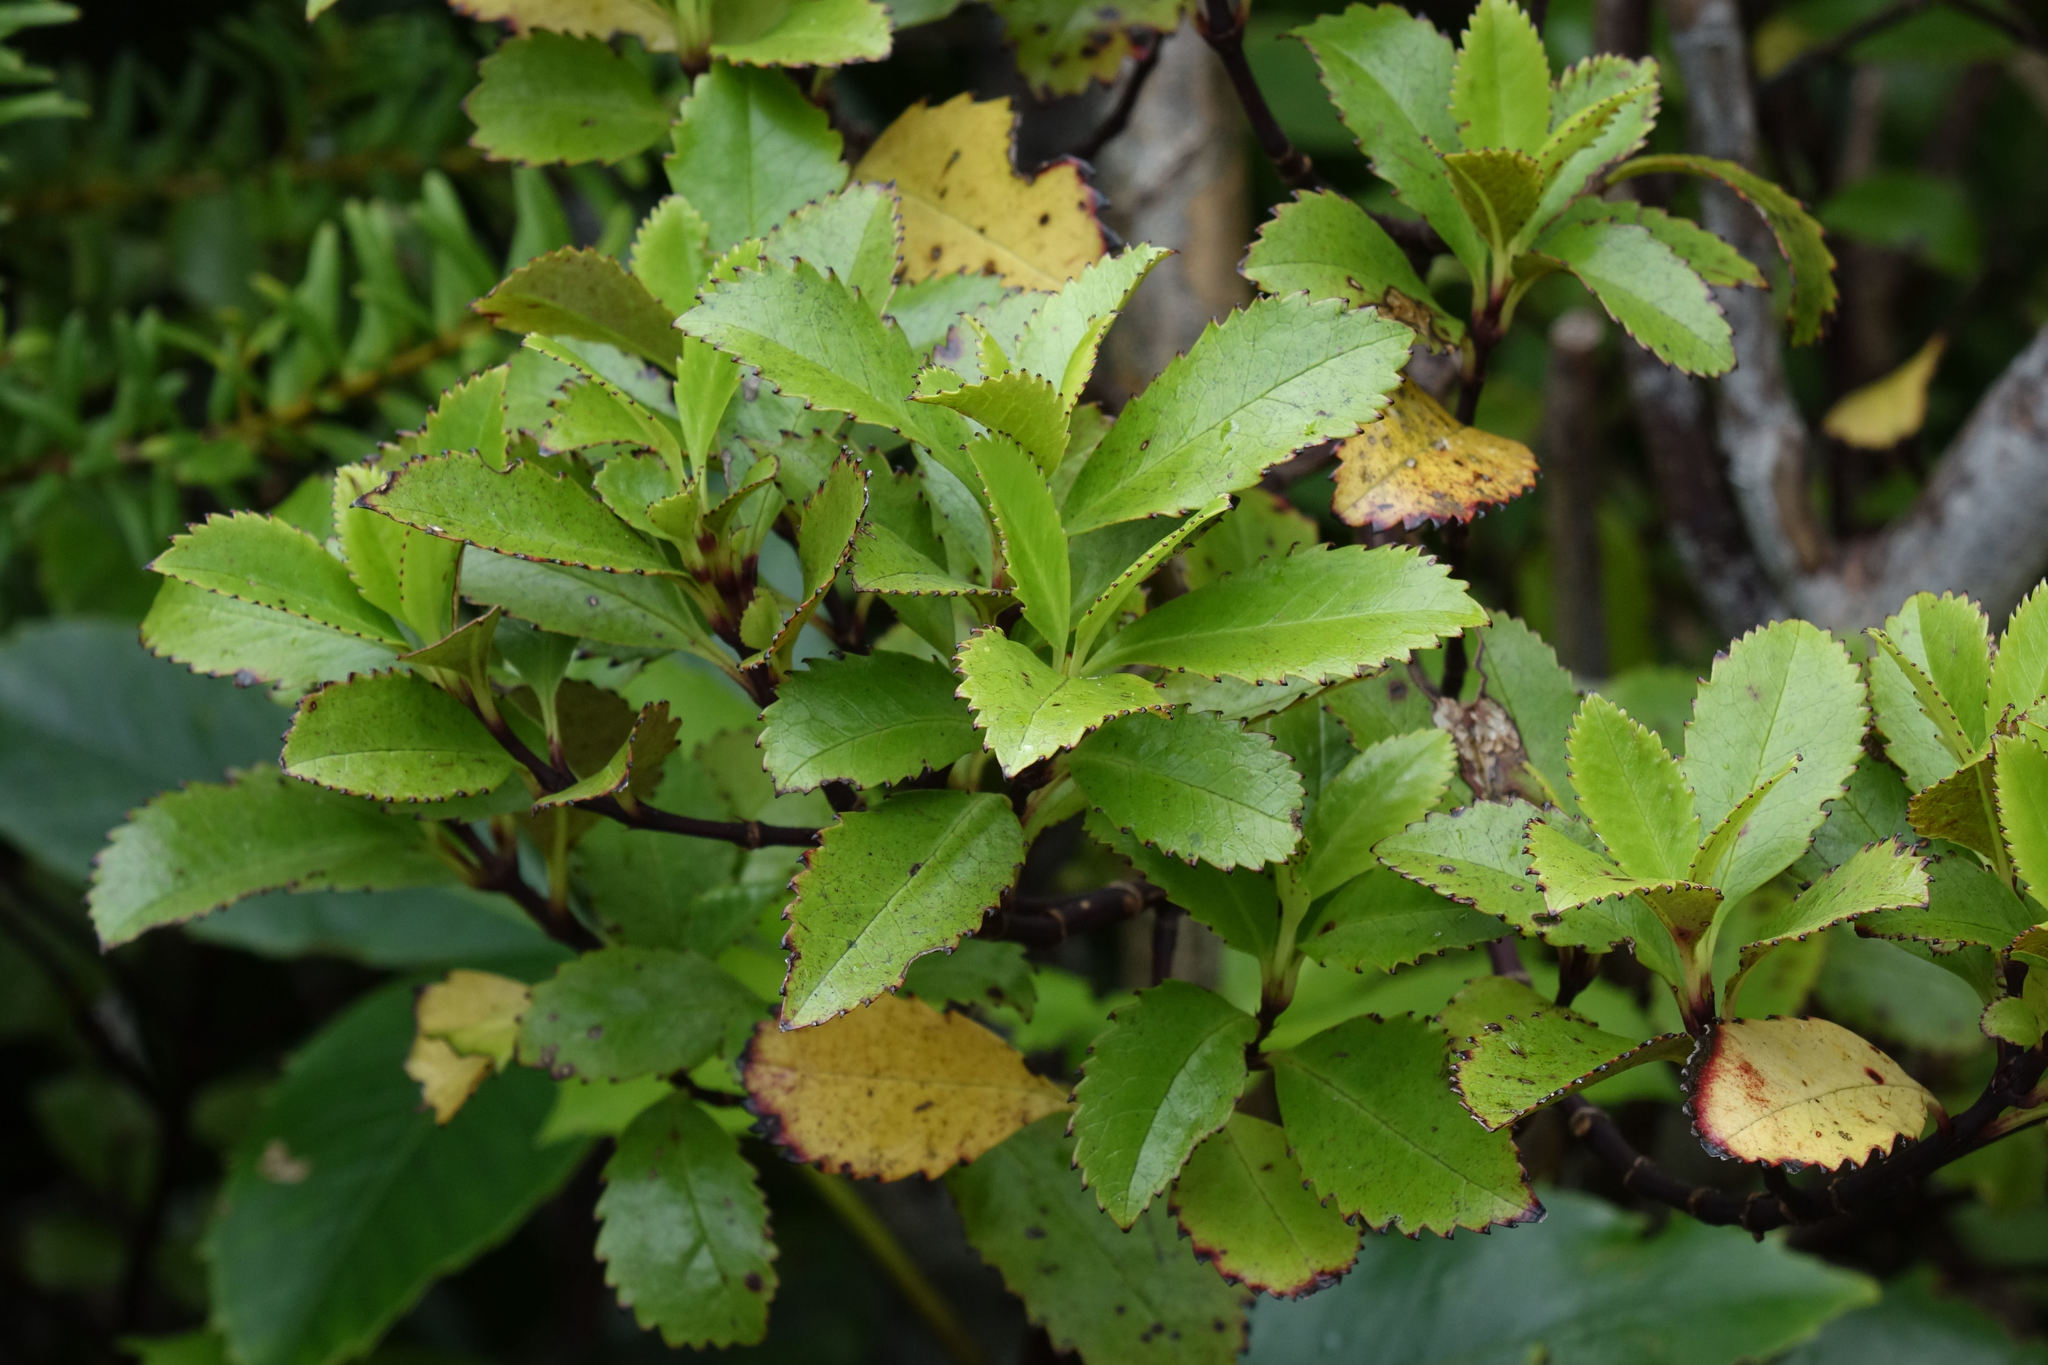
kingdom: Plantae
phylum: Tracheophyta
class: Magnoliopsida
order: Chloranthales
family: Chloranthaceae
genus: Ascarina
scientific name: Ascarina lucida
